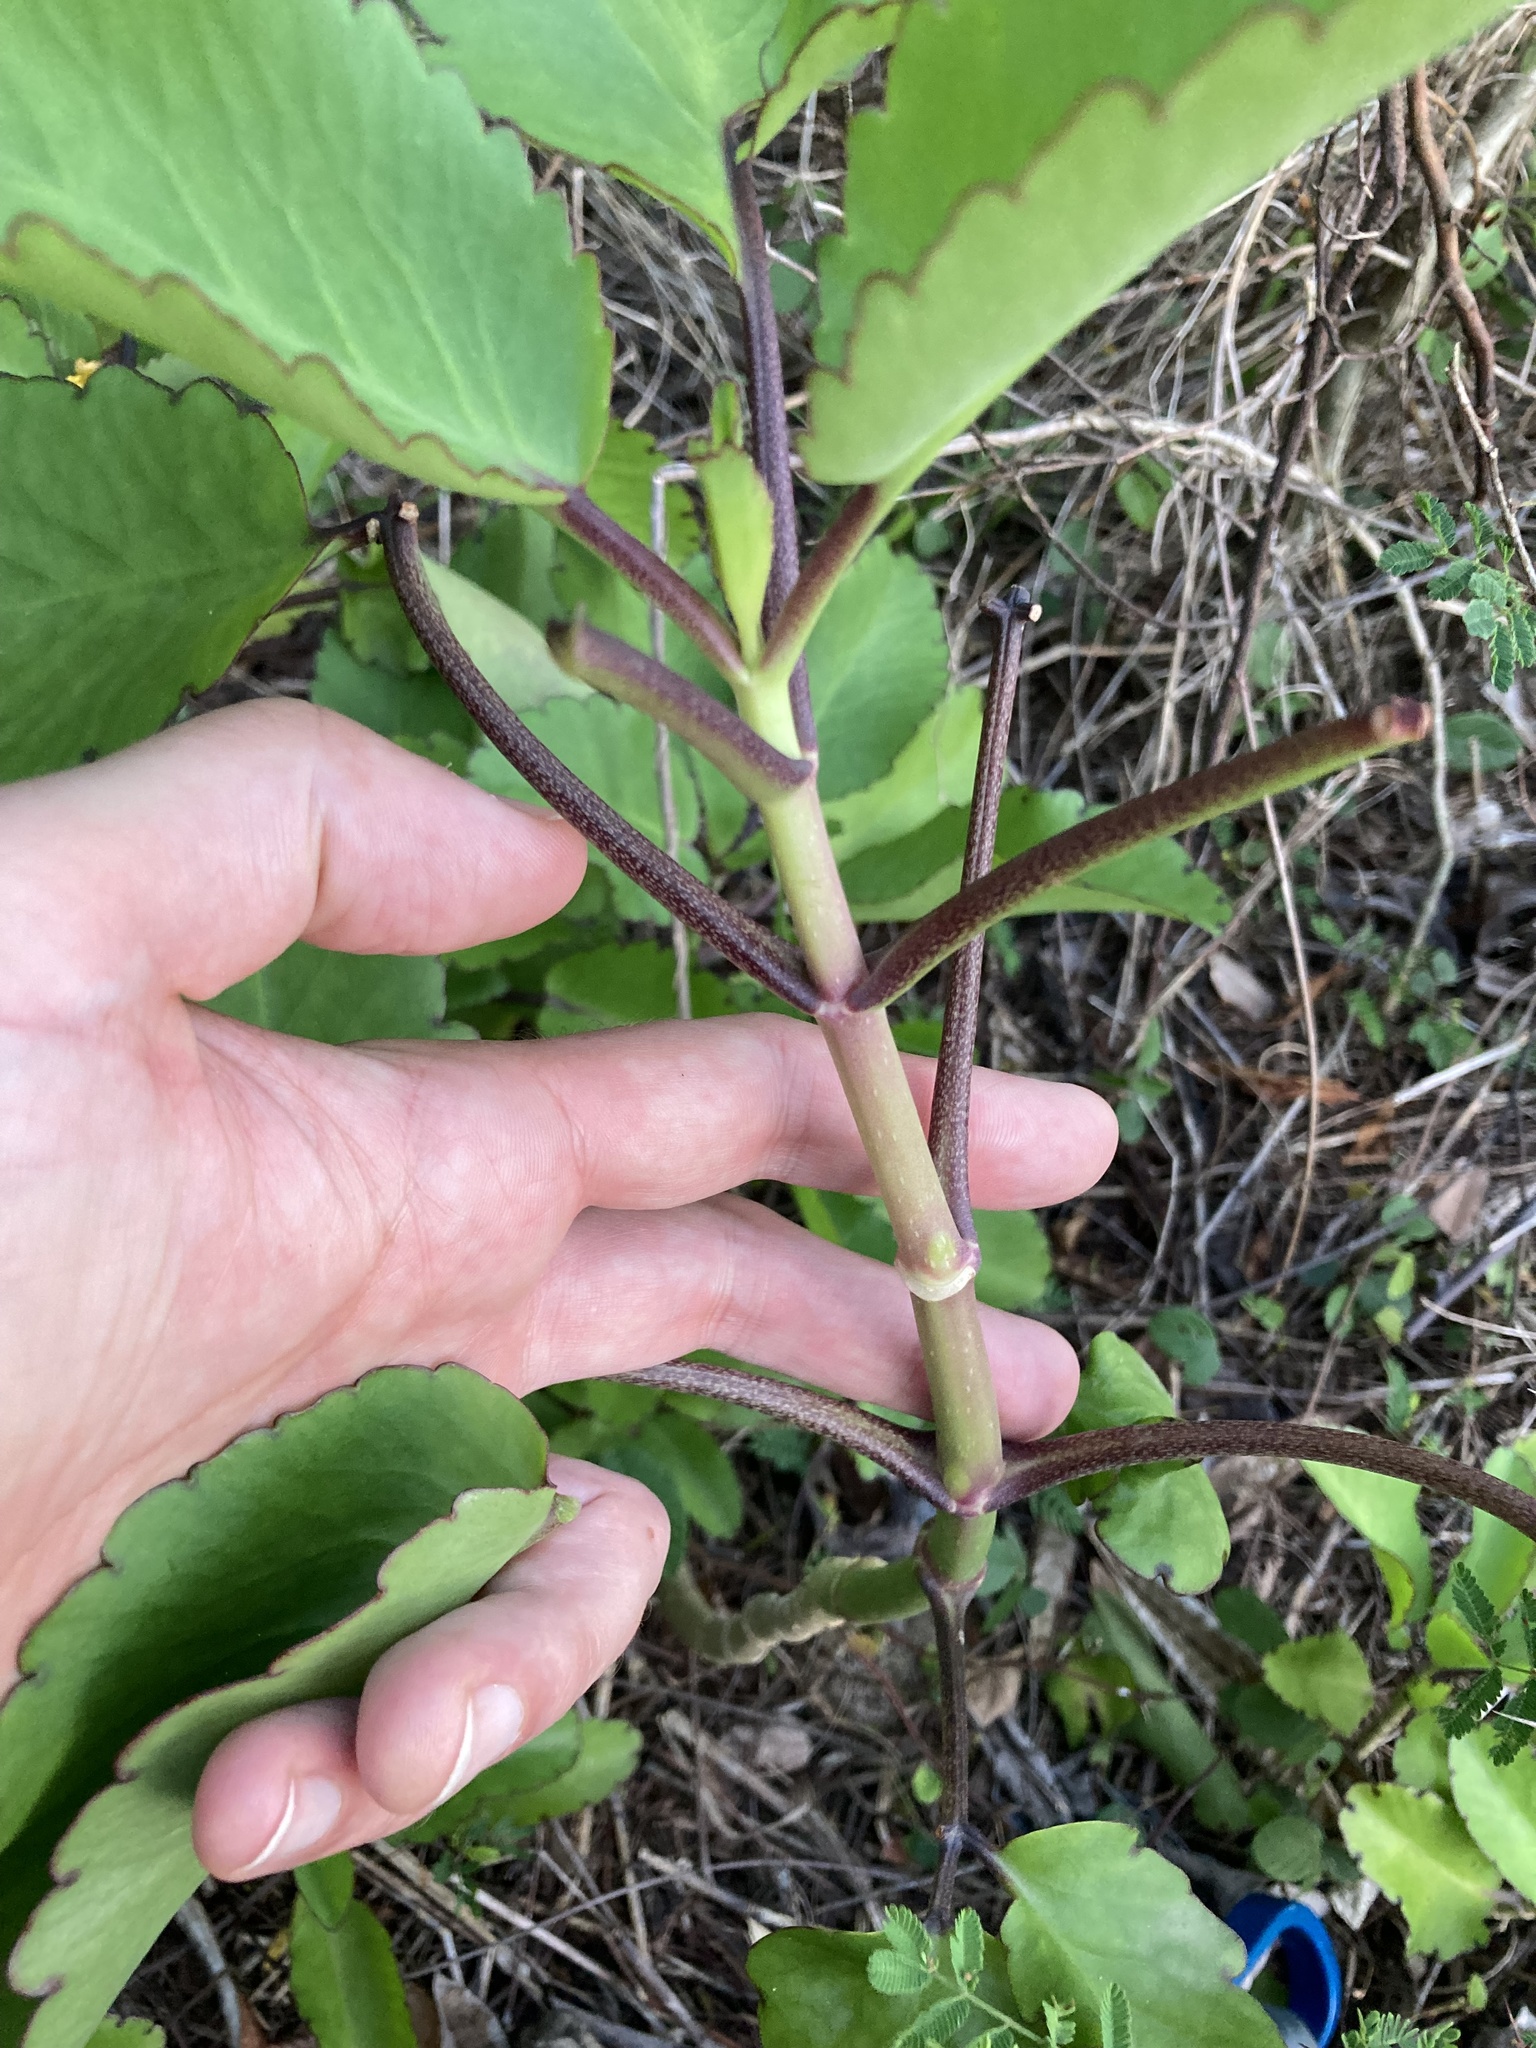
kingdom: Plantae
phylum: Tracheophyta
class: Magnoliopsida
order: Saxifragales
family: Crassulaceae
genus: Kalanchoe
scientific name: Kalanchoe pinnata
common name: Cathedral bells
